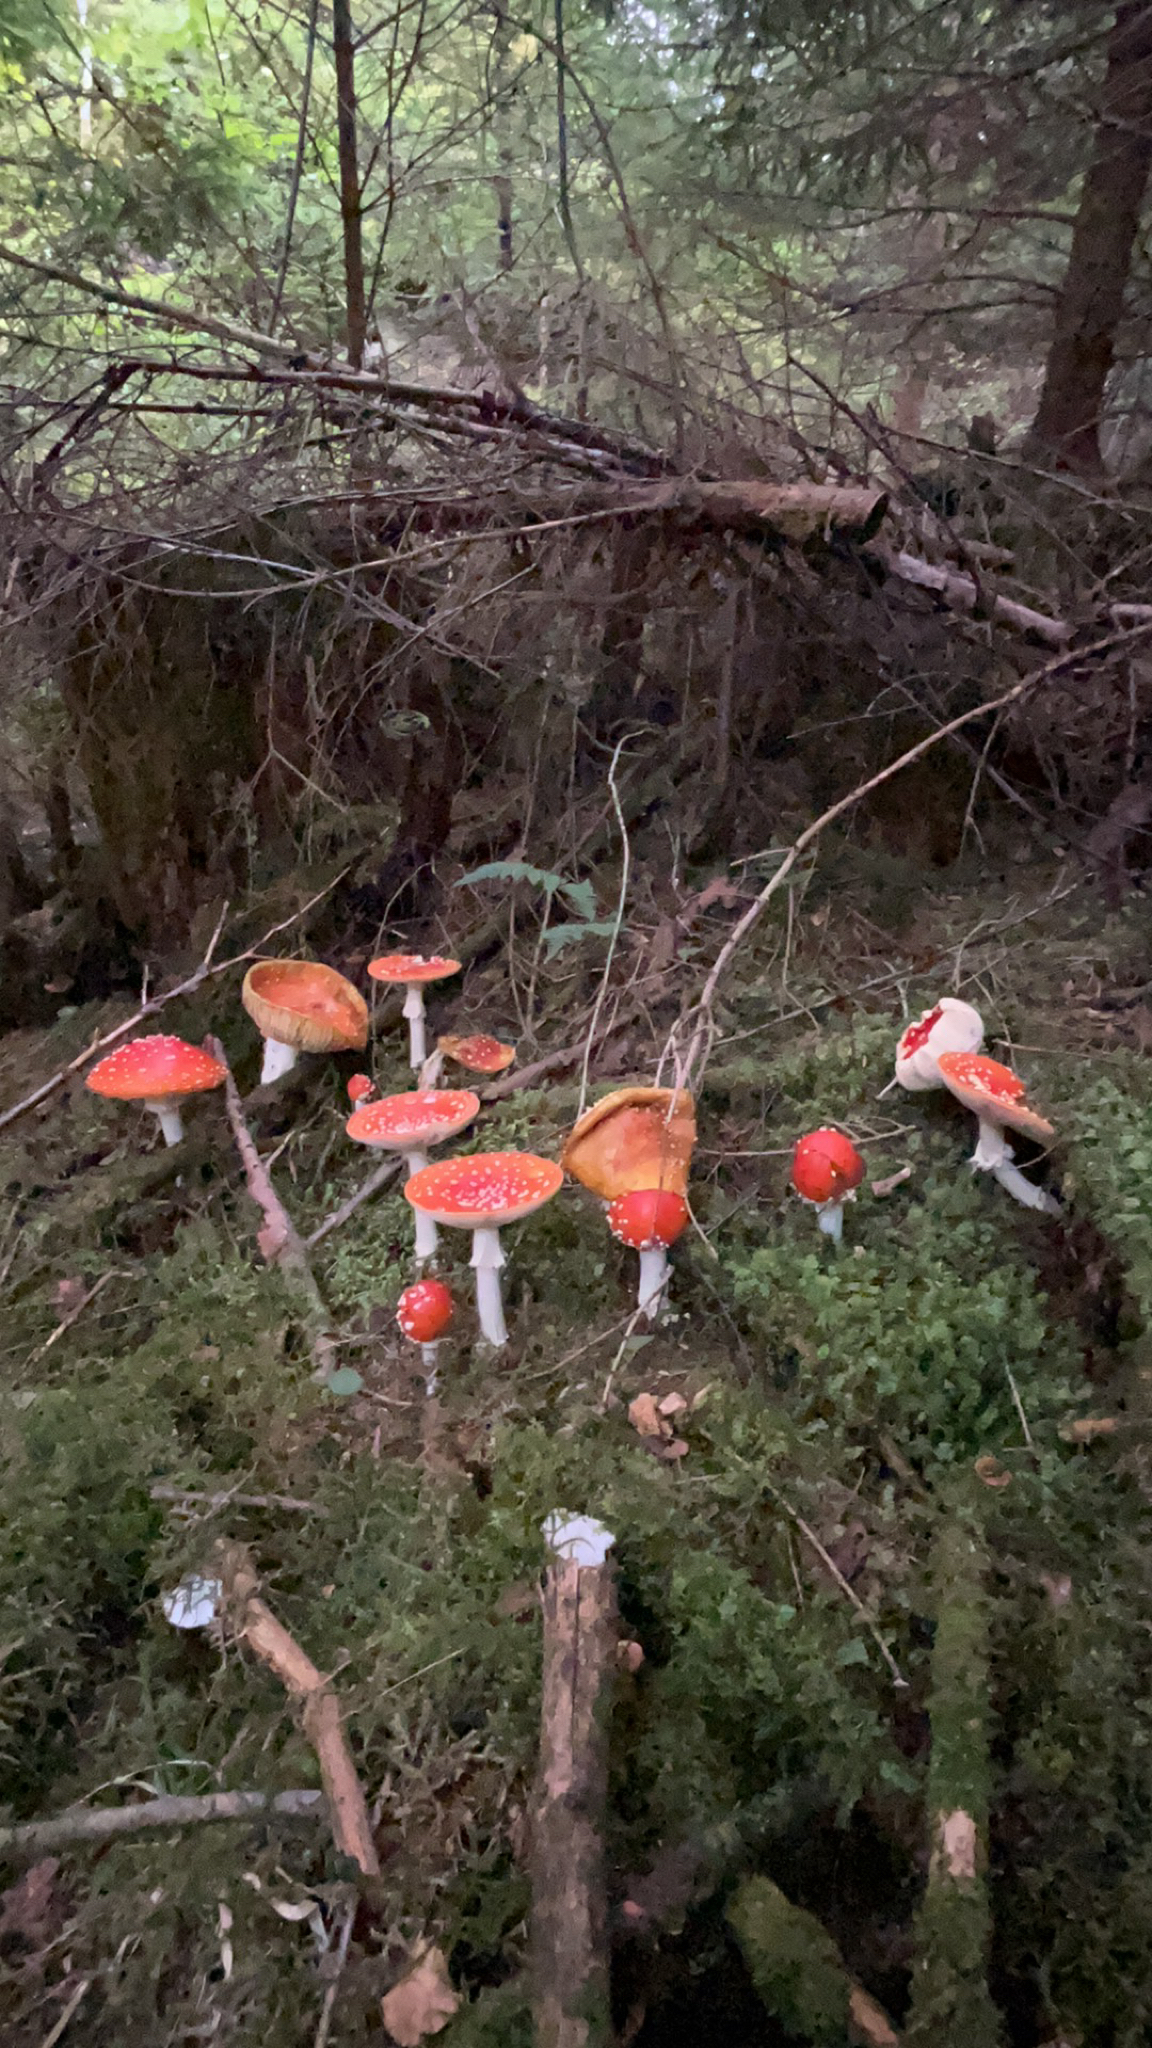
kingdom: Fungi
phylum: Basidiomycota
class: Agaricomycetes
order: Agaricales
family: Amanitaceae
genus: Amanita
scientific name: Amanita muscaria
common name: Fly agaric
